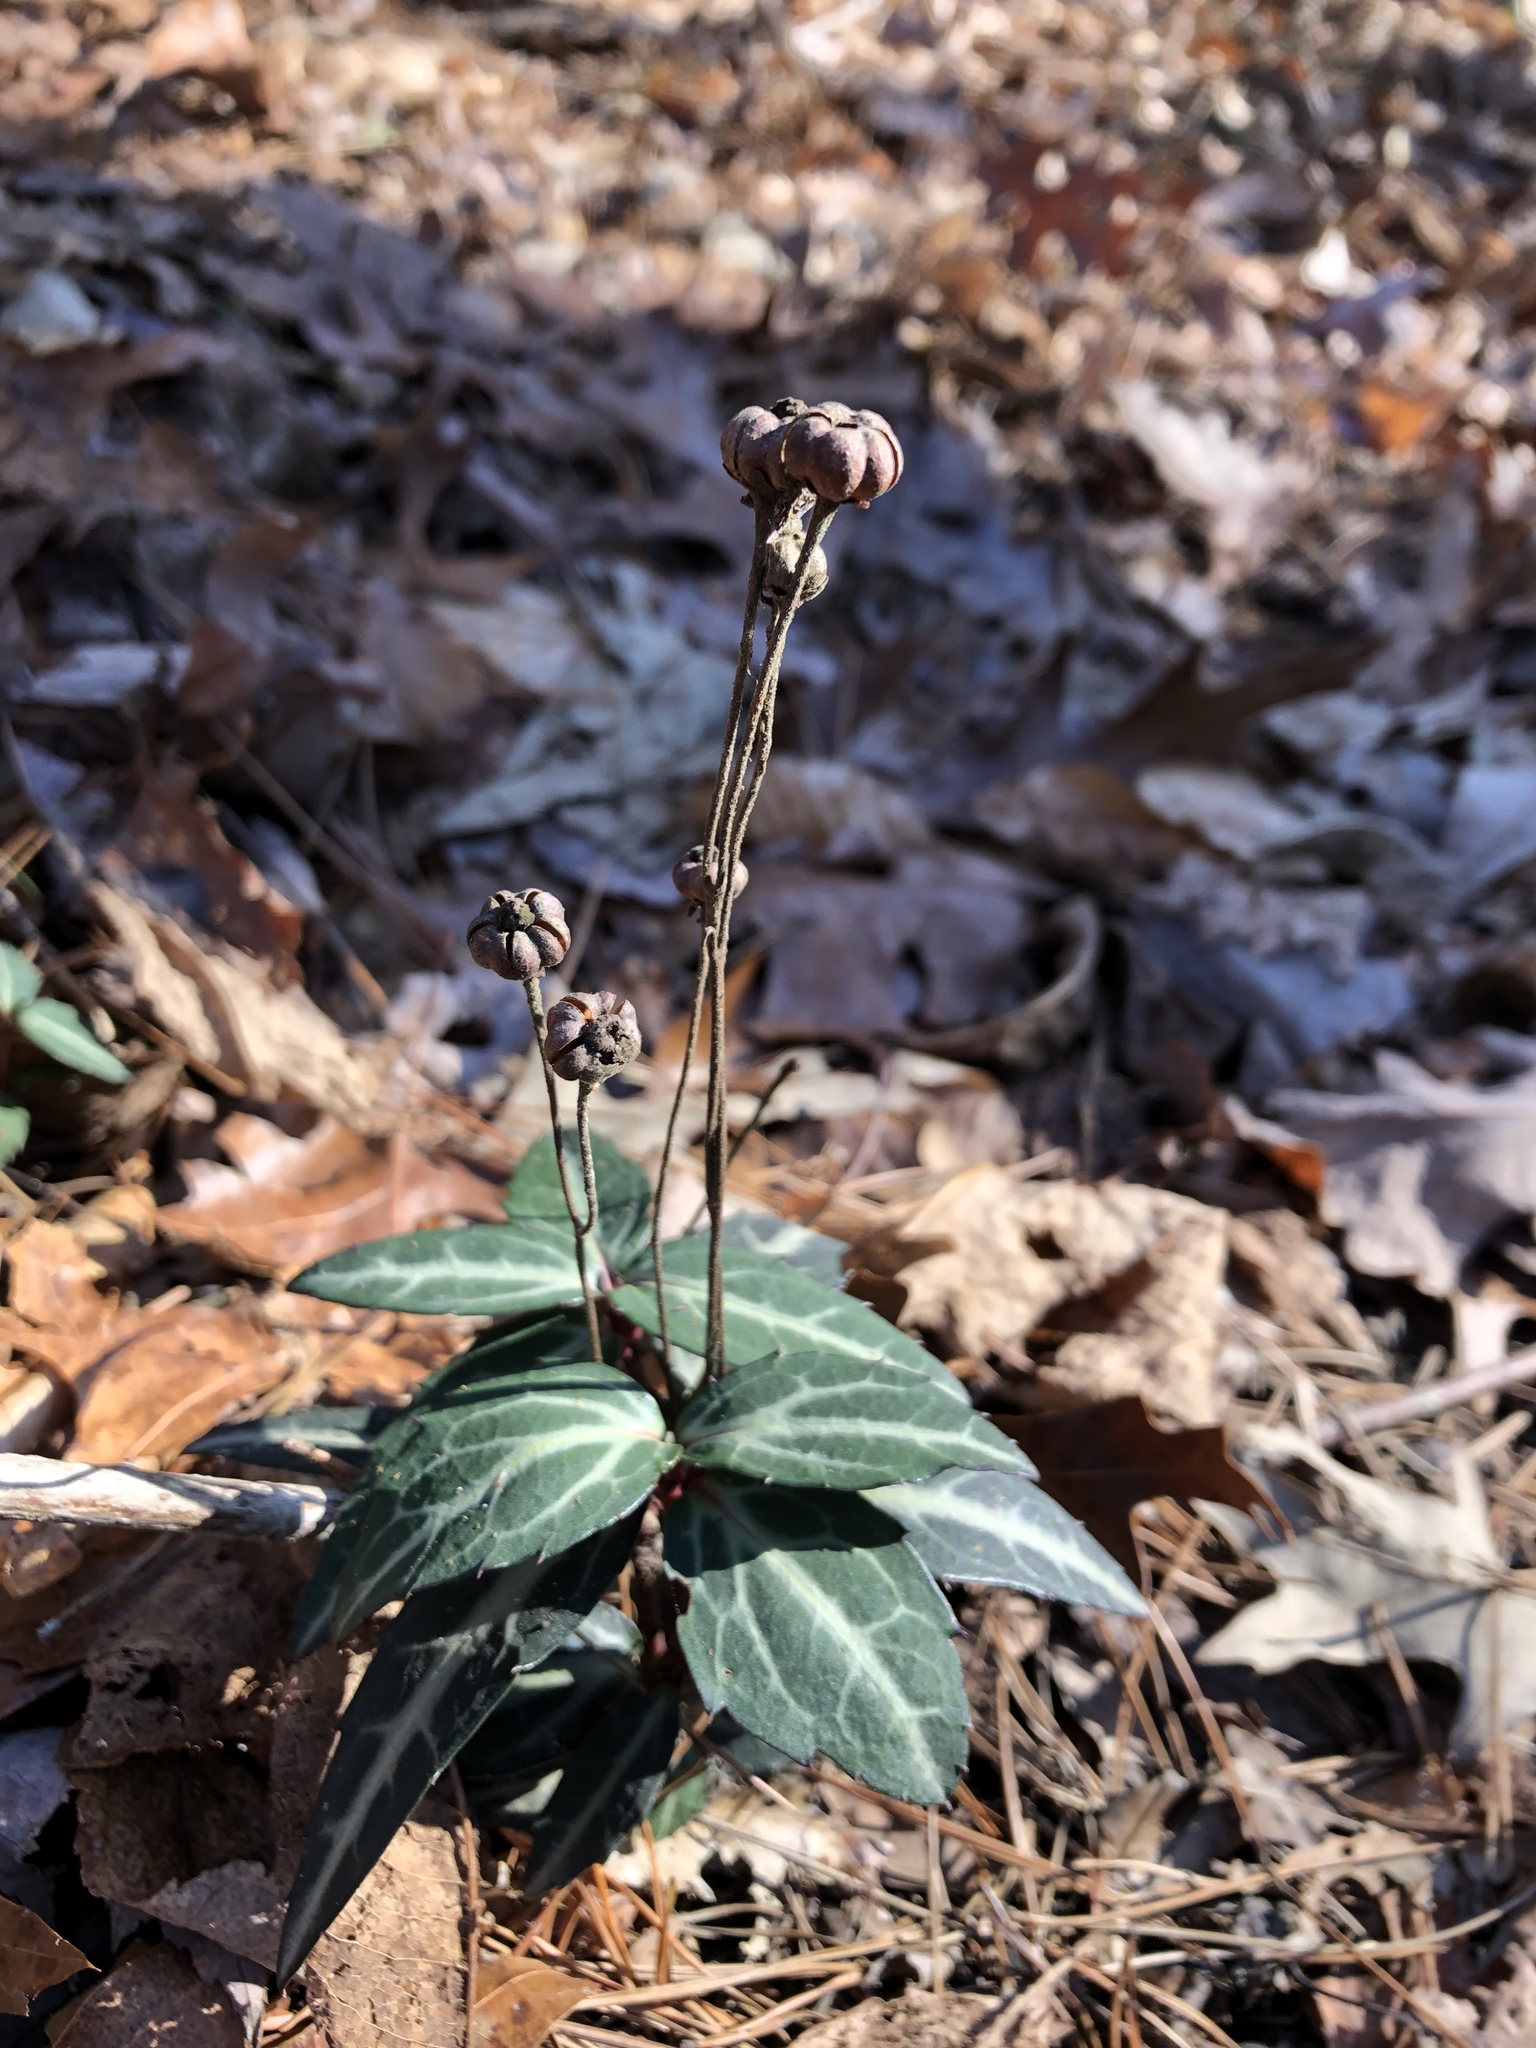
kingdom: Plantae
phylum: Tracheophyta
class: Magnoliopsida
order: Ericales
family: Ericaceae
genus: Chimaphila
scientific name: Chimaphila maculata
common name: Spotted pipsissewa
